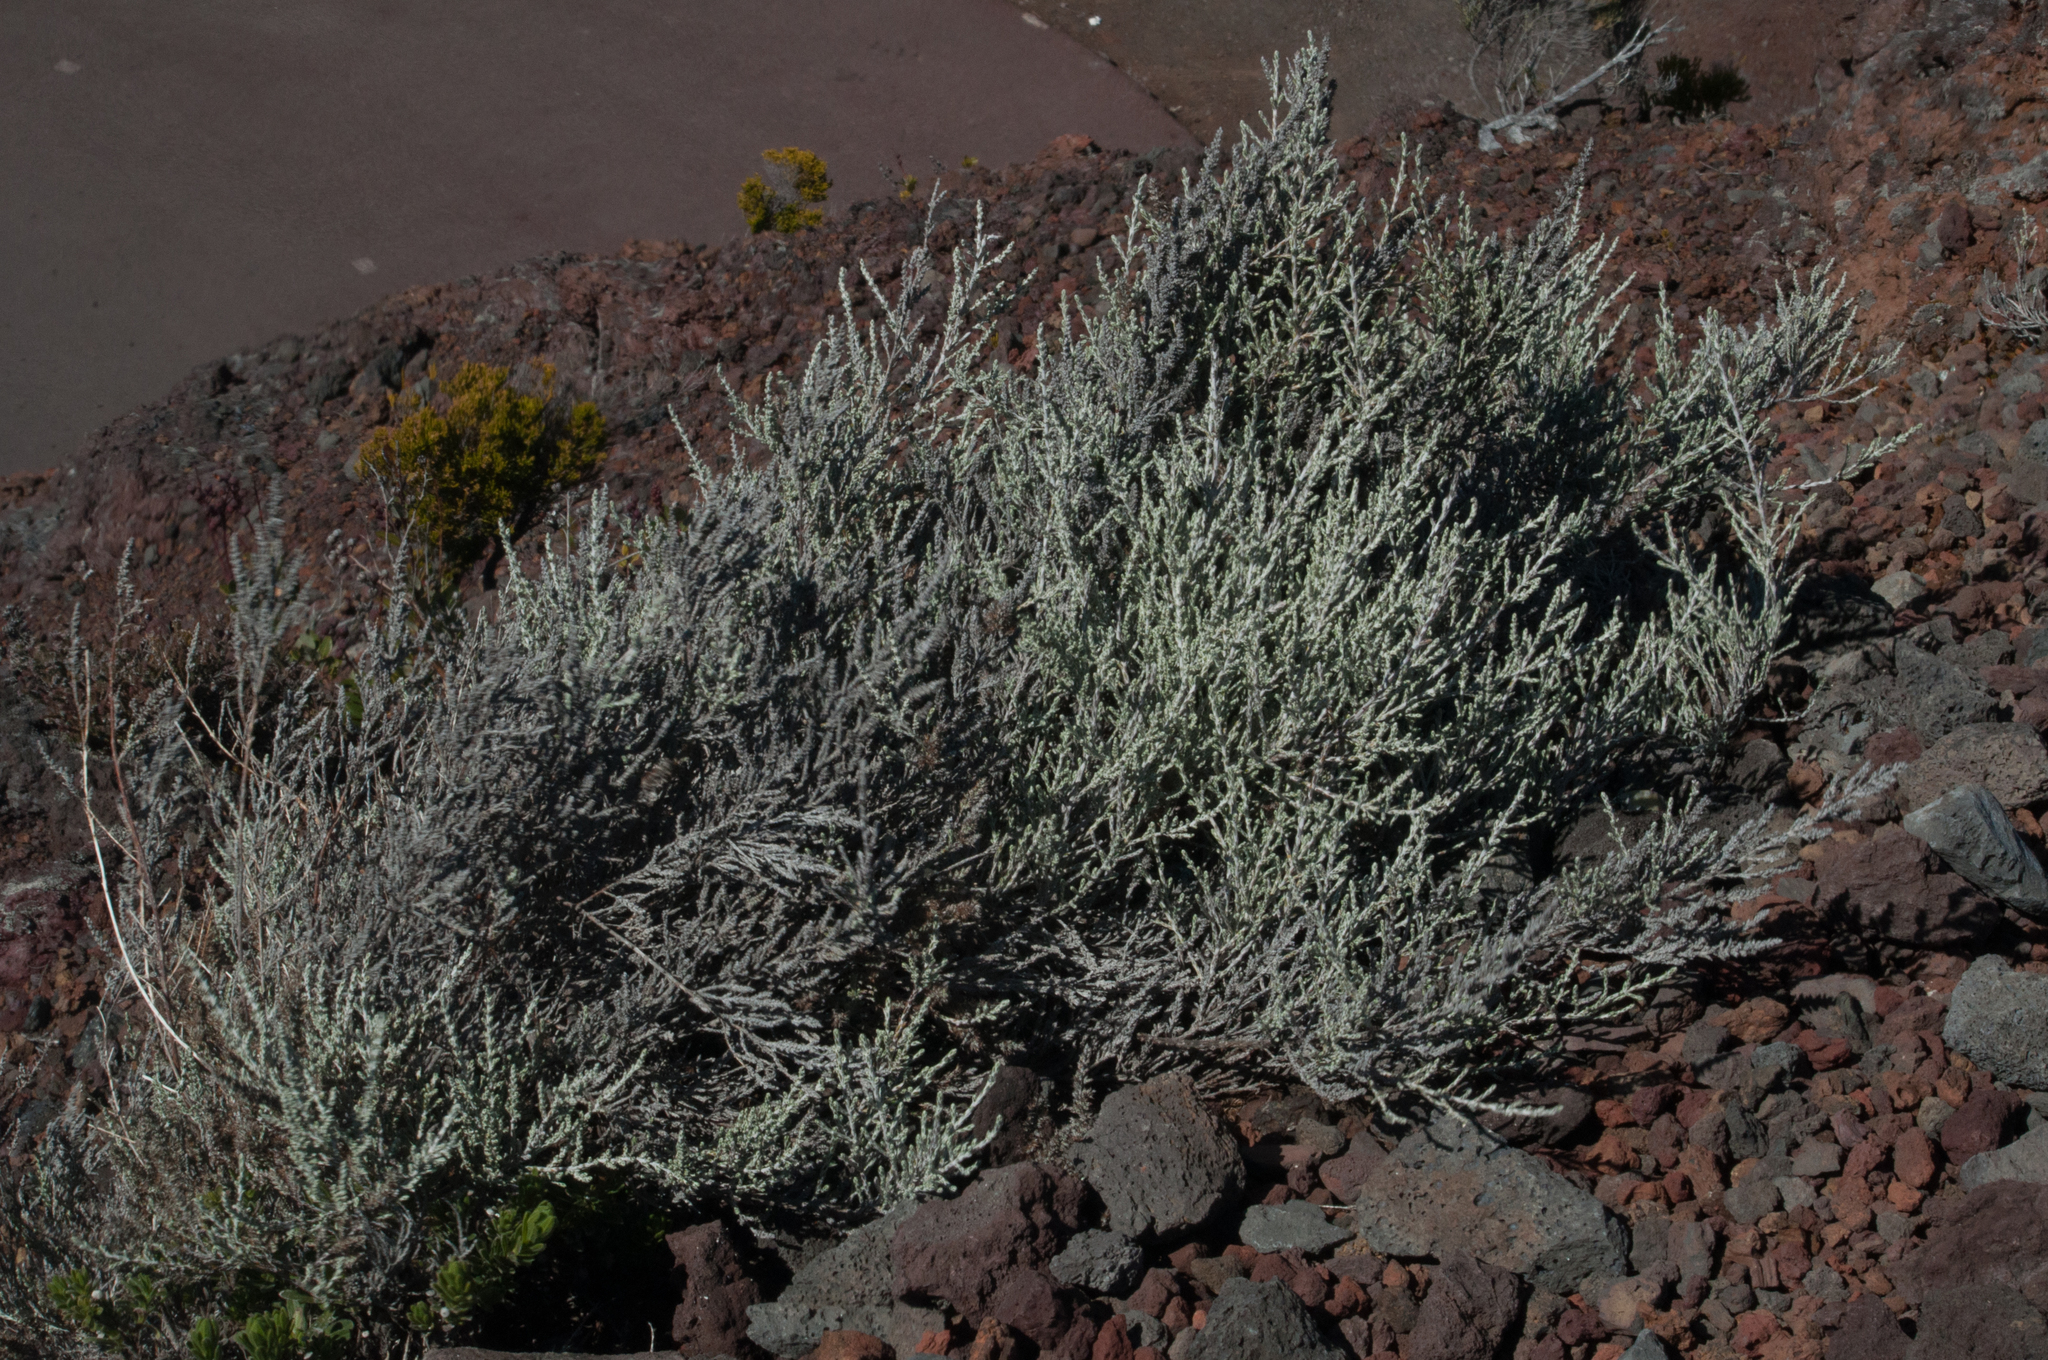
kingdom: Plantae
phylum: Tracheophyta
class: Magnoliopsida
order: Asterales
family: Asteraceae
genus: Seriphium
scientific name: Seriphium passerinoides
